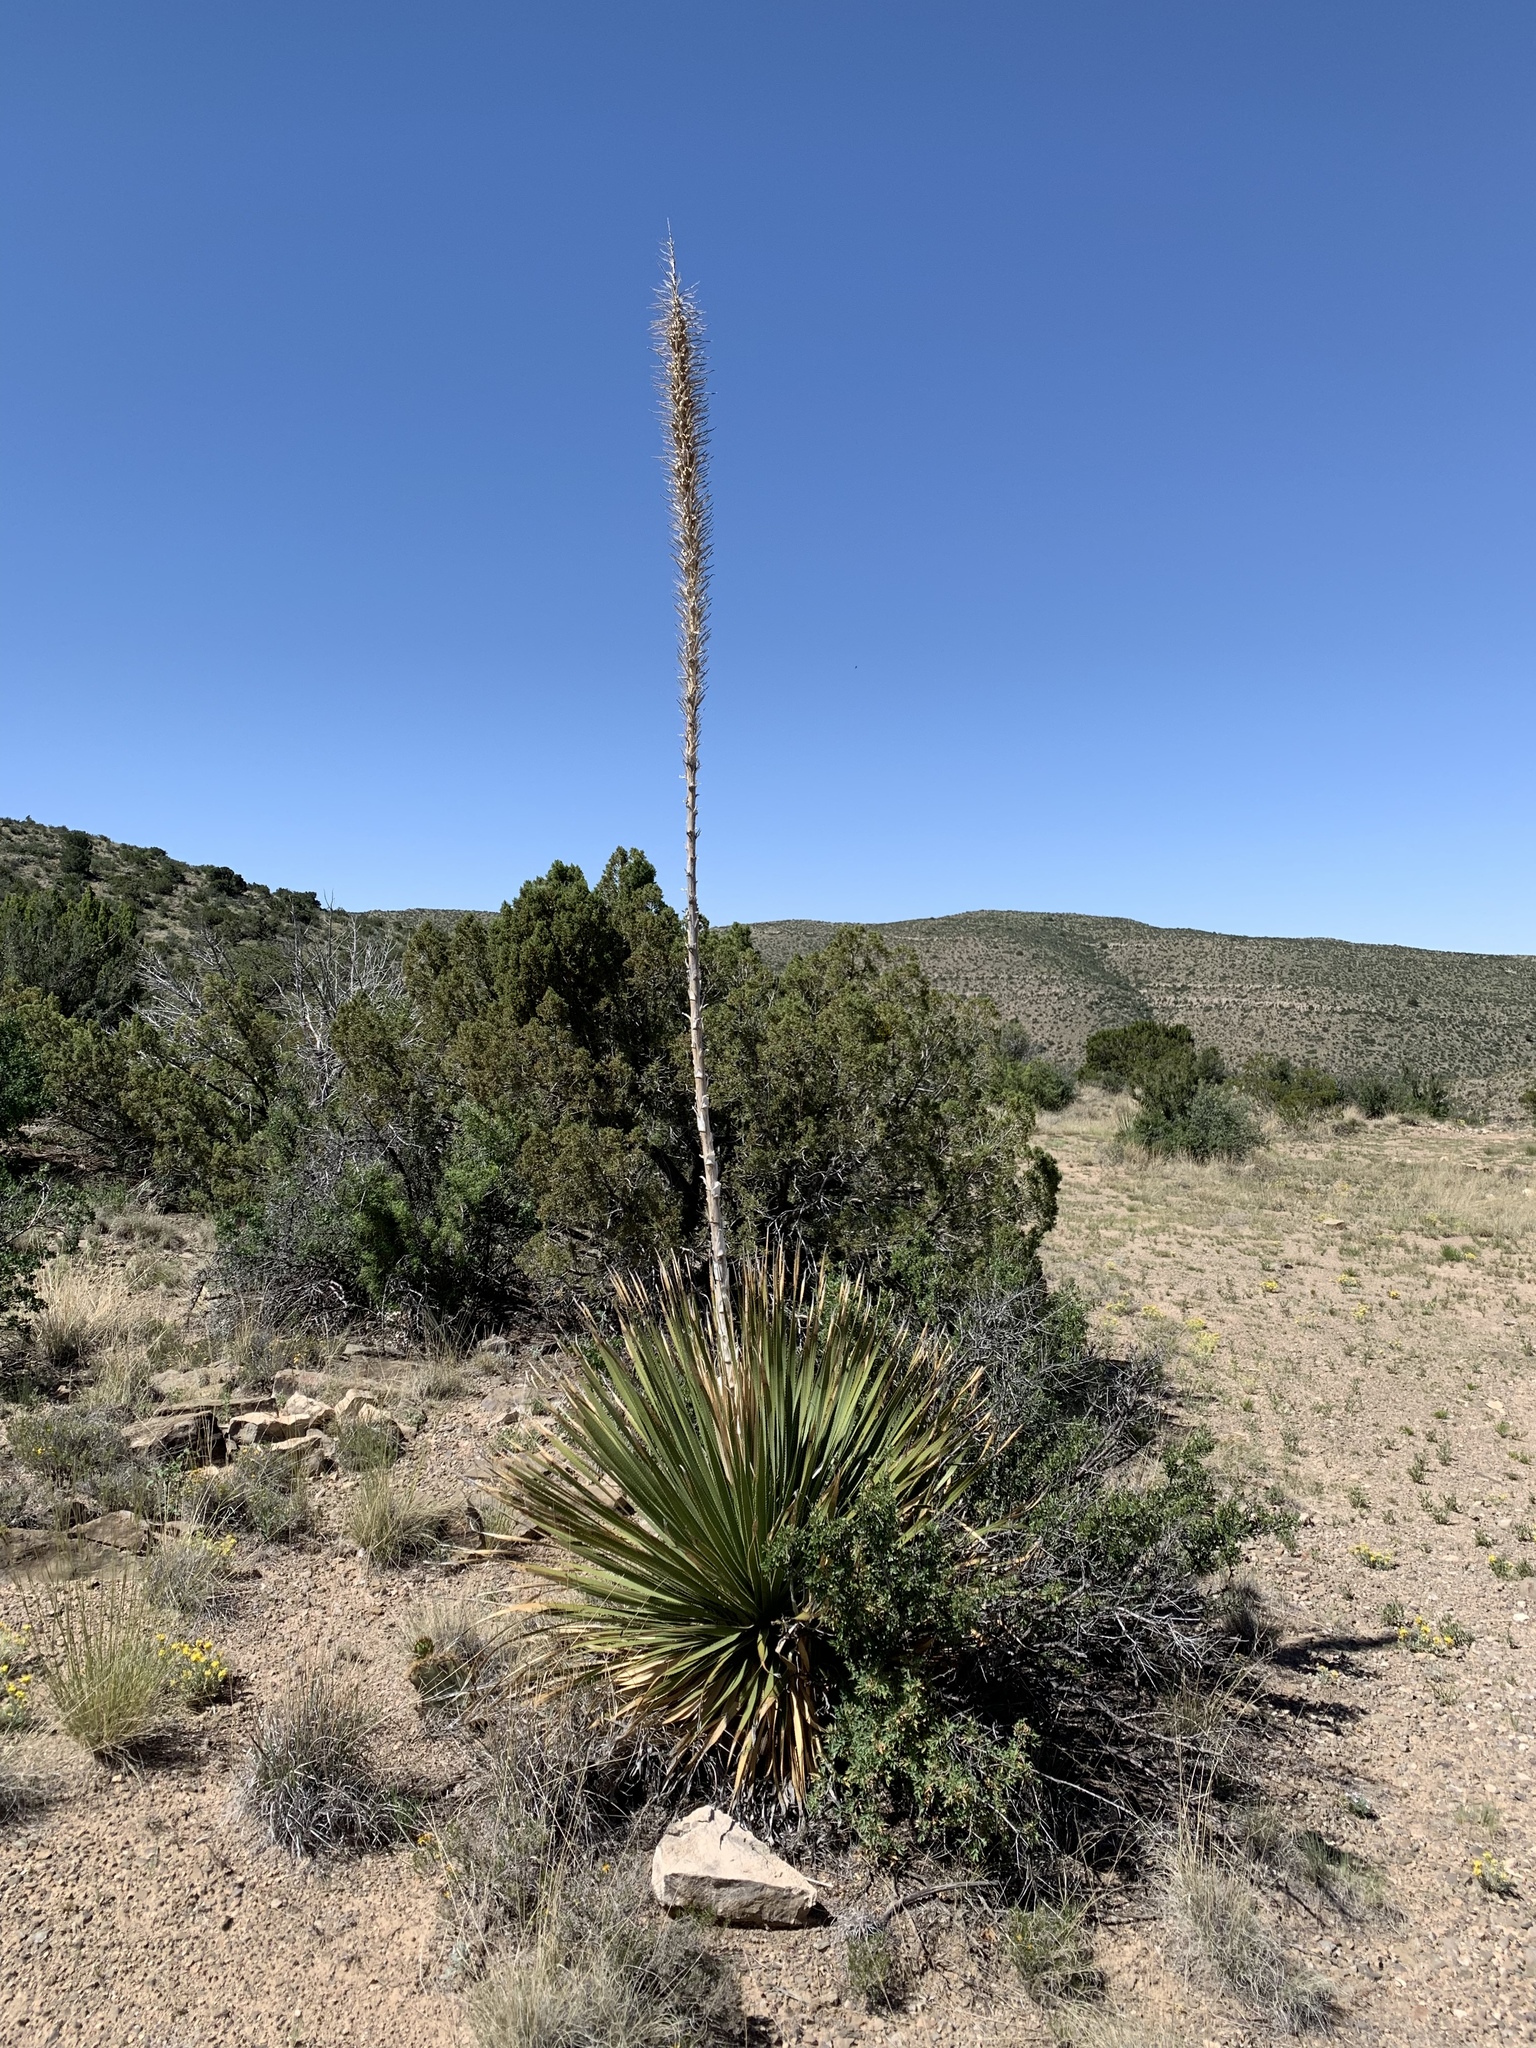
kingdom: Plantae
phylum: Tracheophyta
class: Liliopsida
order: Asparagales
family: Asparagaceae
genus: Dasylirion
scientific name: Dasylirion wheeleri
